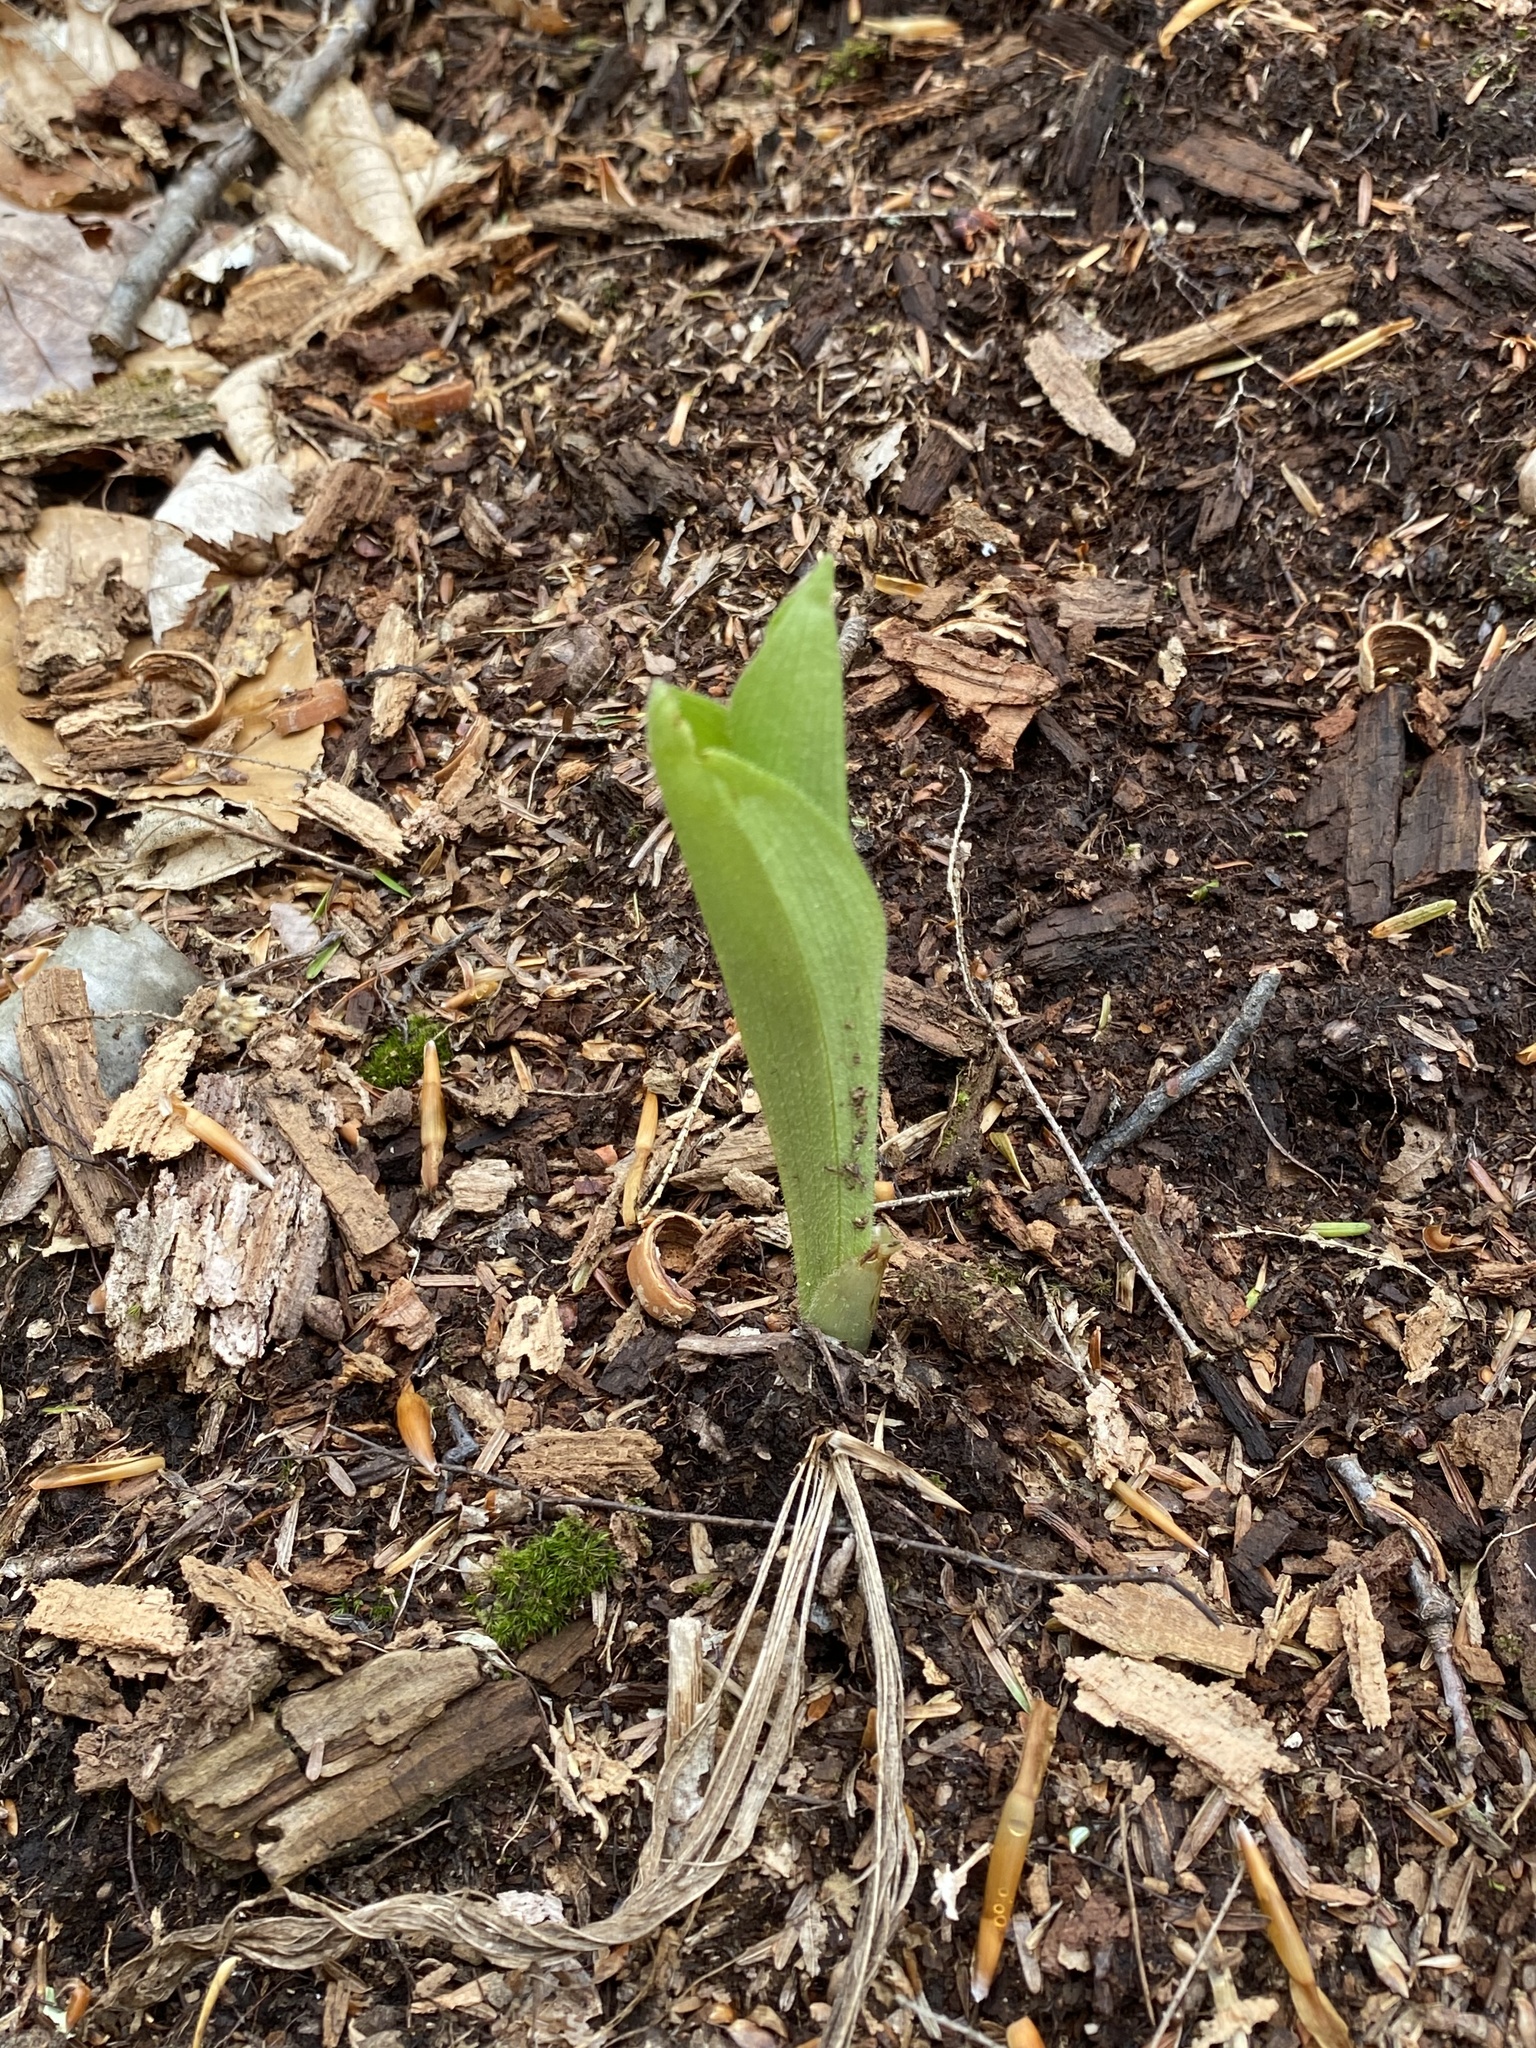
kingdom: Plantae
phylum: Tracheophyta
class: Liliopsida
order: Asparagales
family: Orchidaceae
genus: Cypripedium
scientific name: Cypripedium acaule
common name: Pink lady's-slipper
